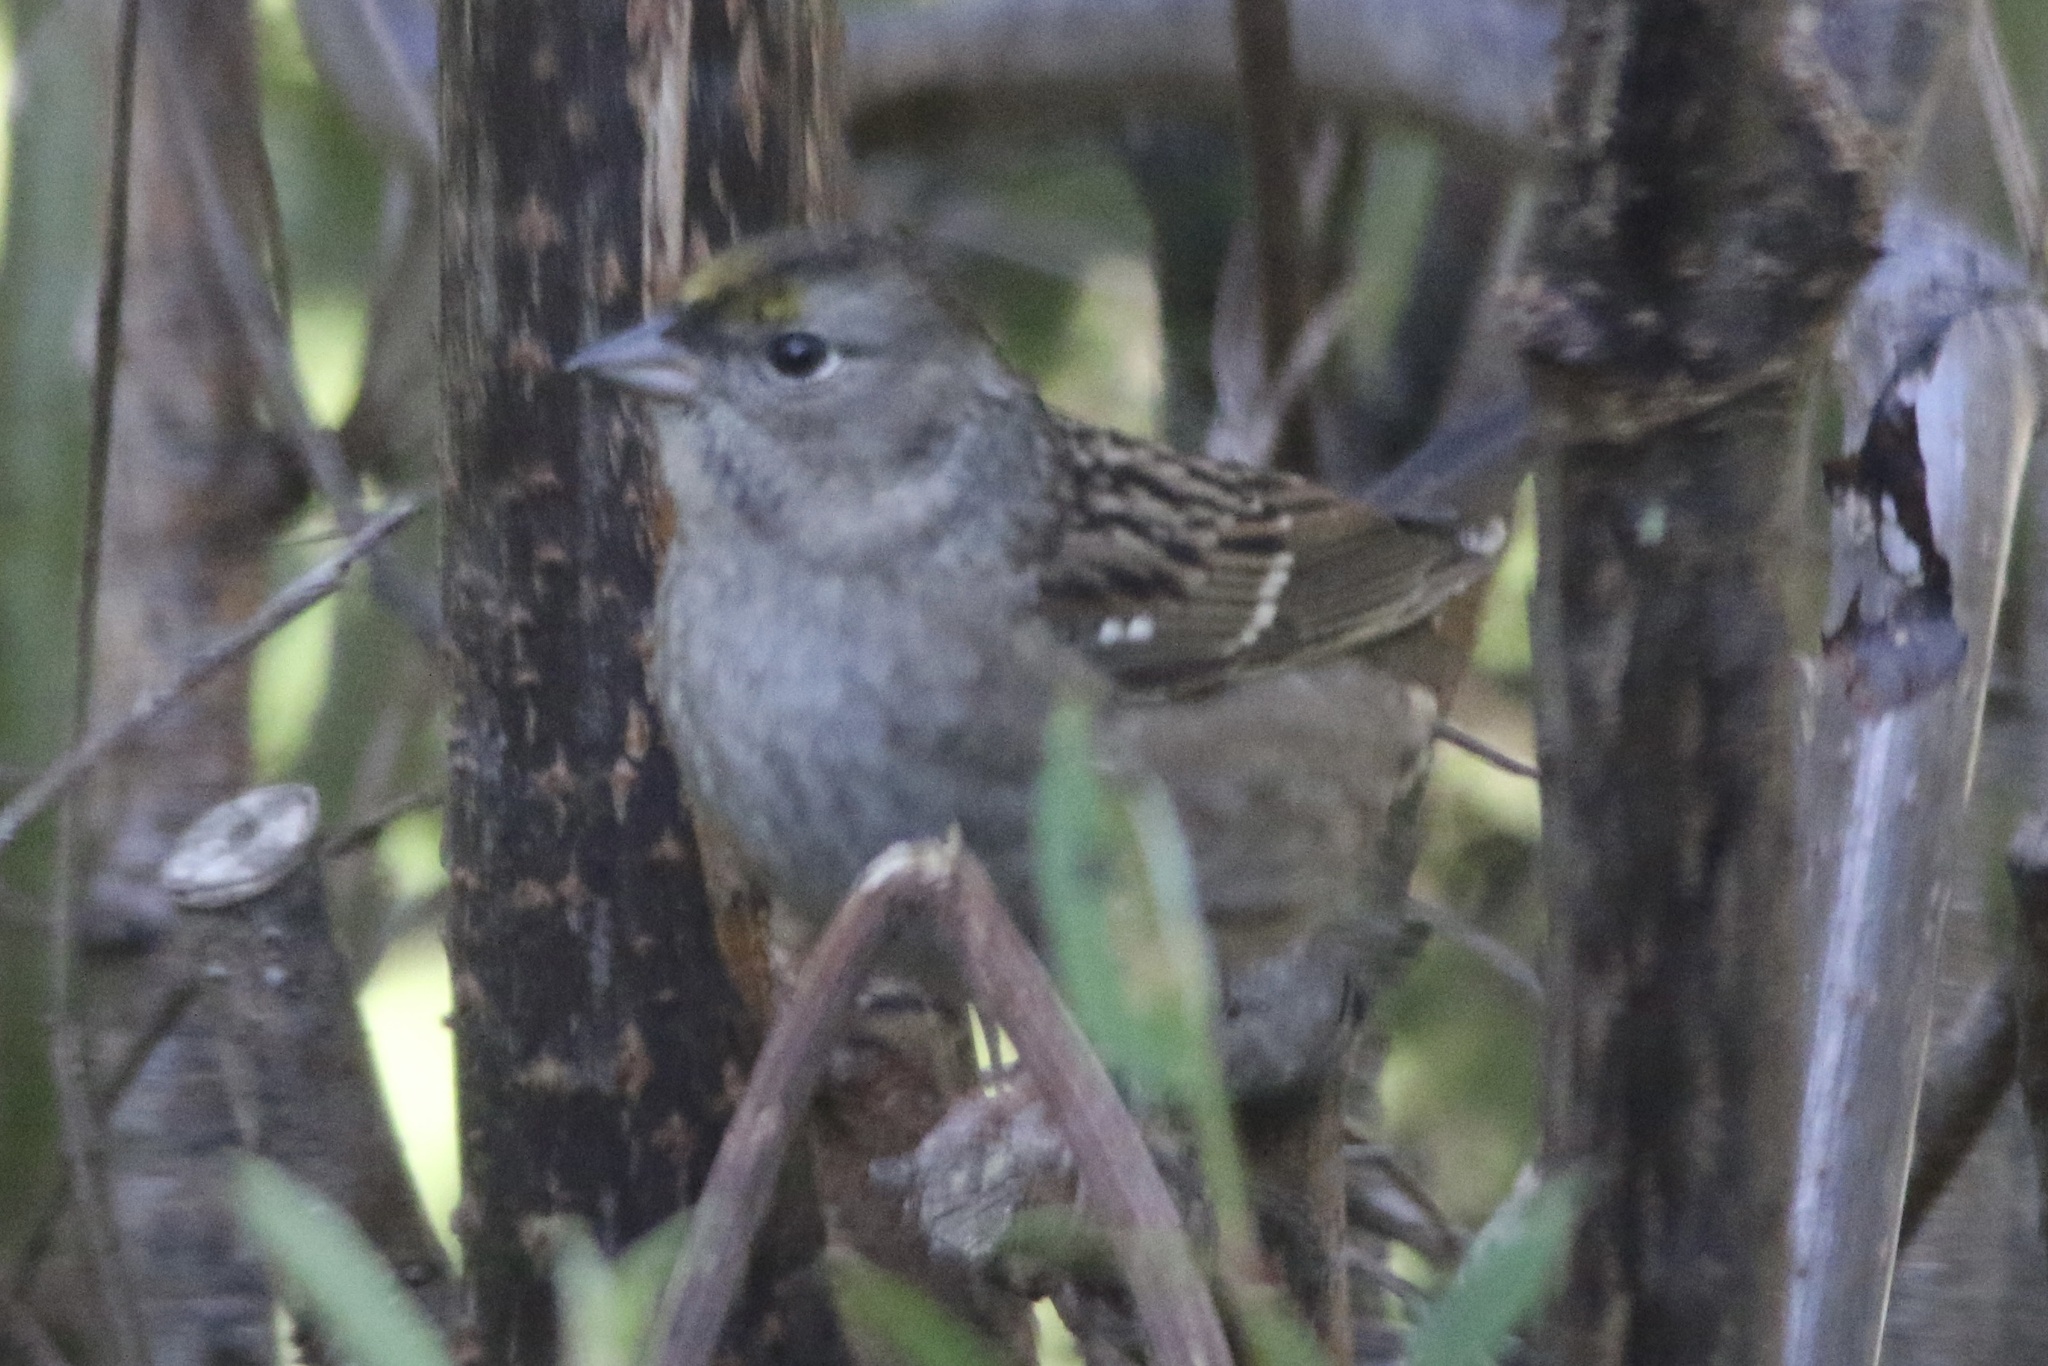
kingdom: Animalia
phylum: Chordata
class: Aves
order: Passeriformes
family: Passerellidae
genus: Zonotrichia
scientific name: Zonotrichia atricapilla
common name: Golden-crowned sparrow
